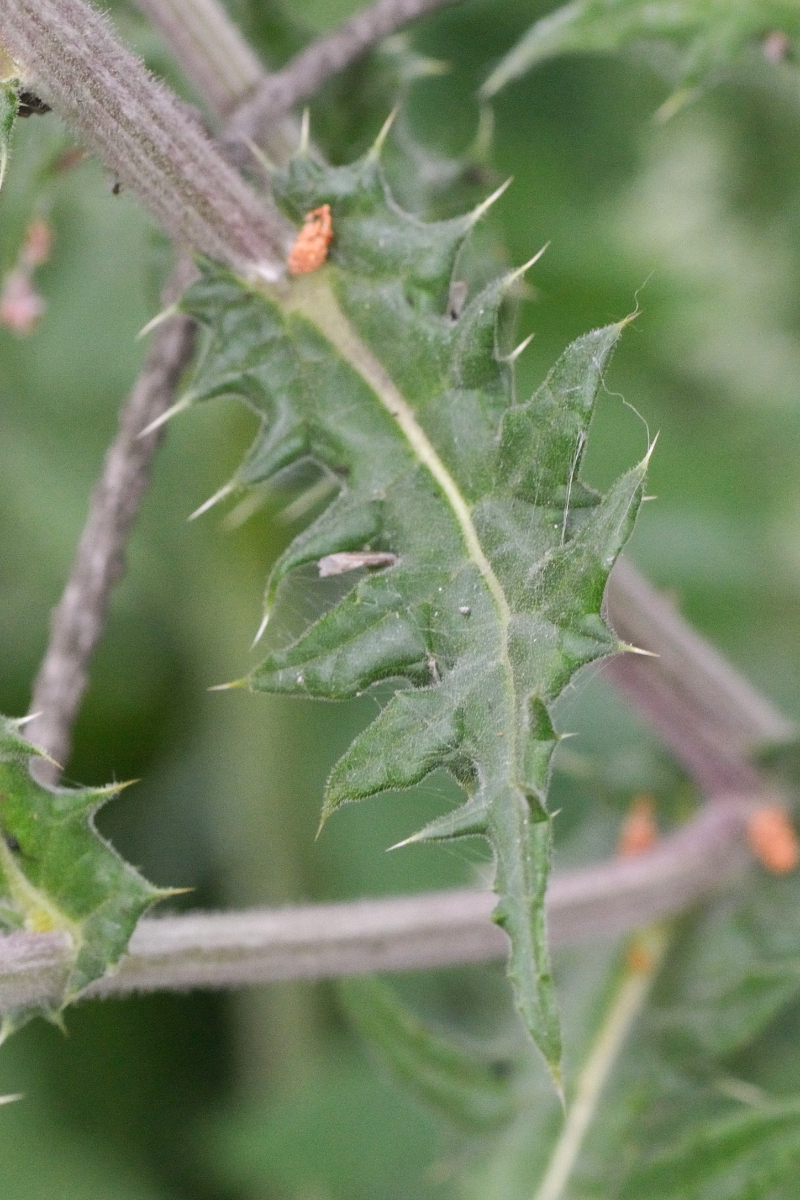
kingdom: Plantae
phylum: Tracheophyta
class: Magnoliopsida
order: Asterales
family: Asteraceae
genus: Echinops
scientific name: Echinops sphaerocephalus
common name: Glandular globe-thistle
